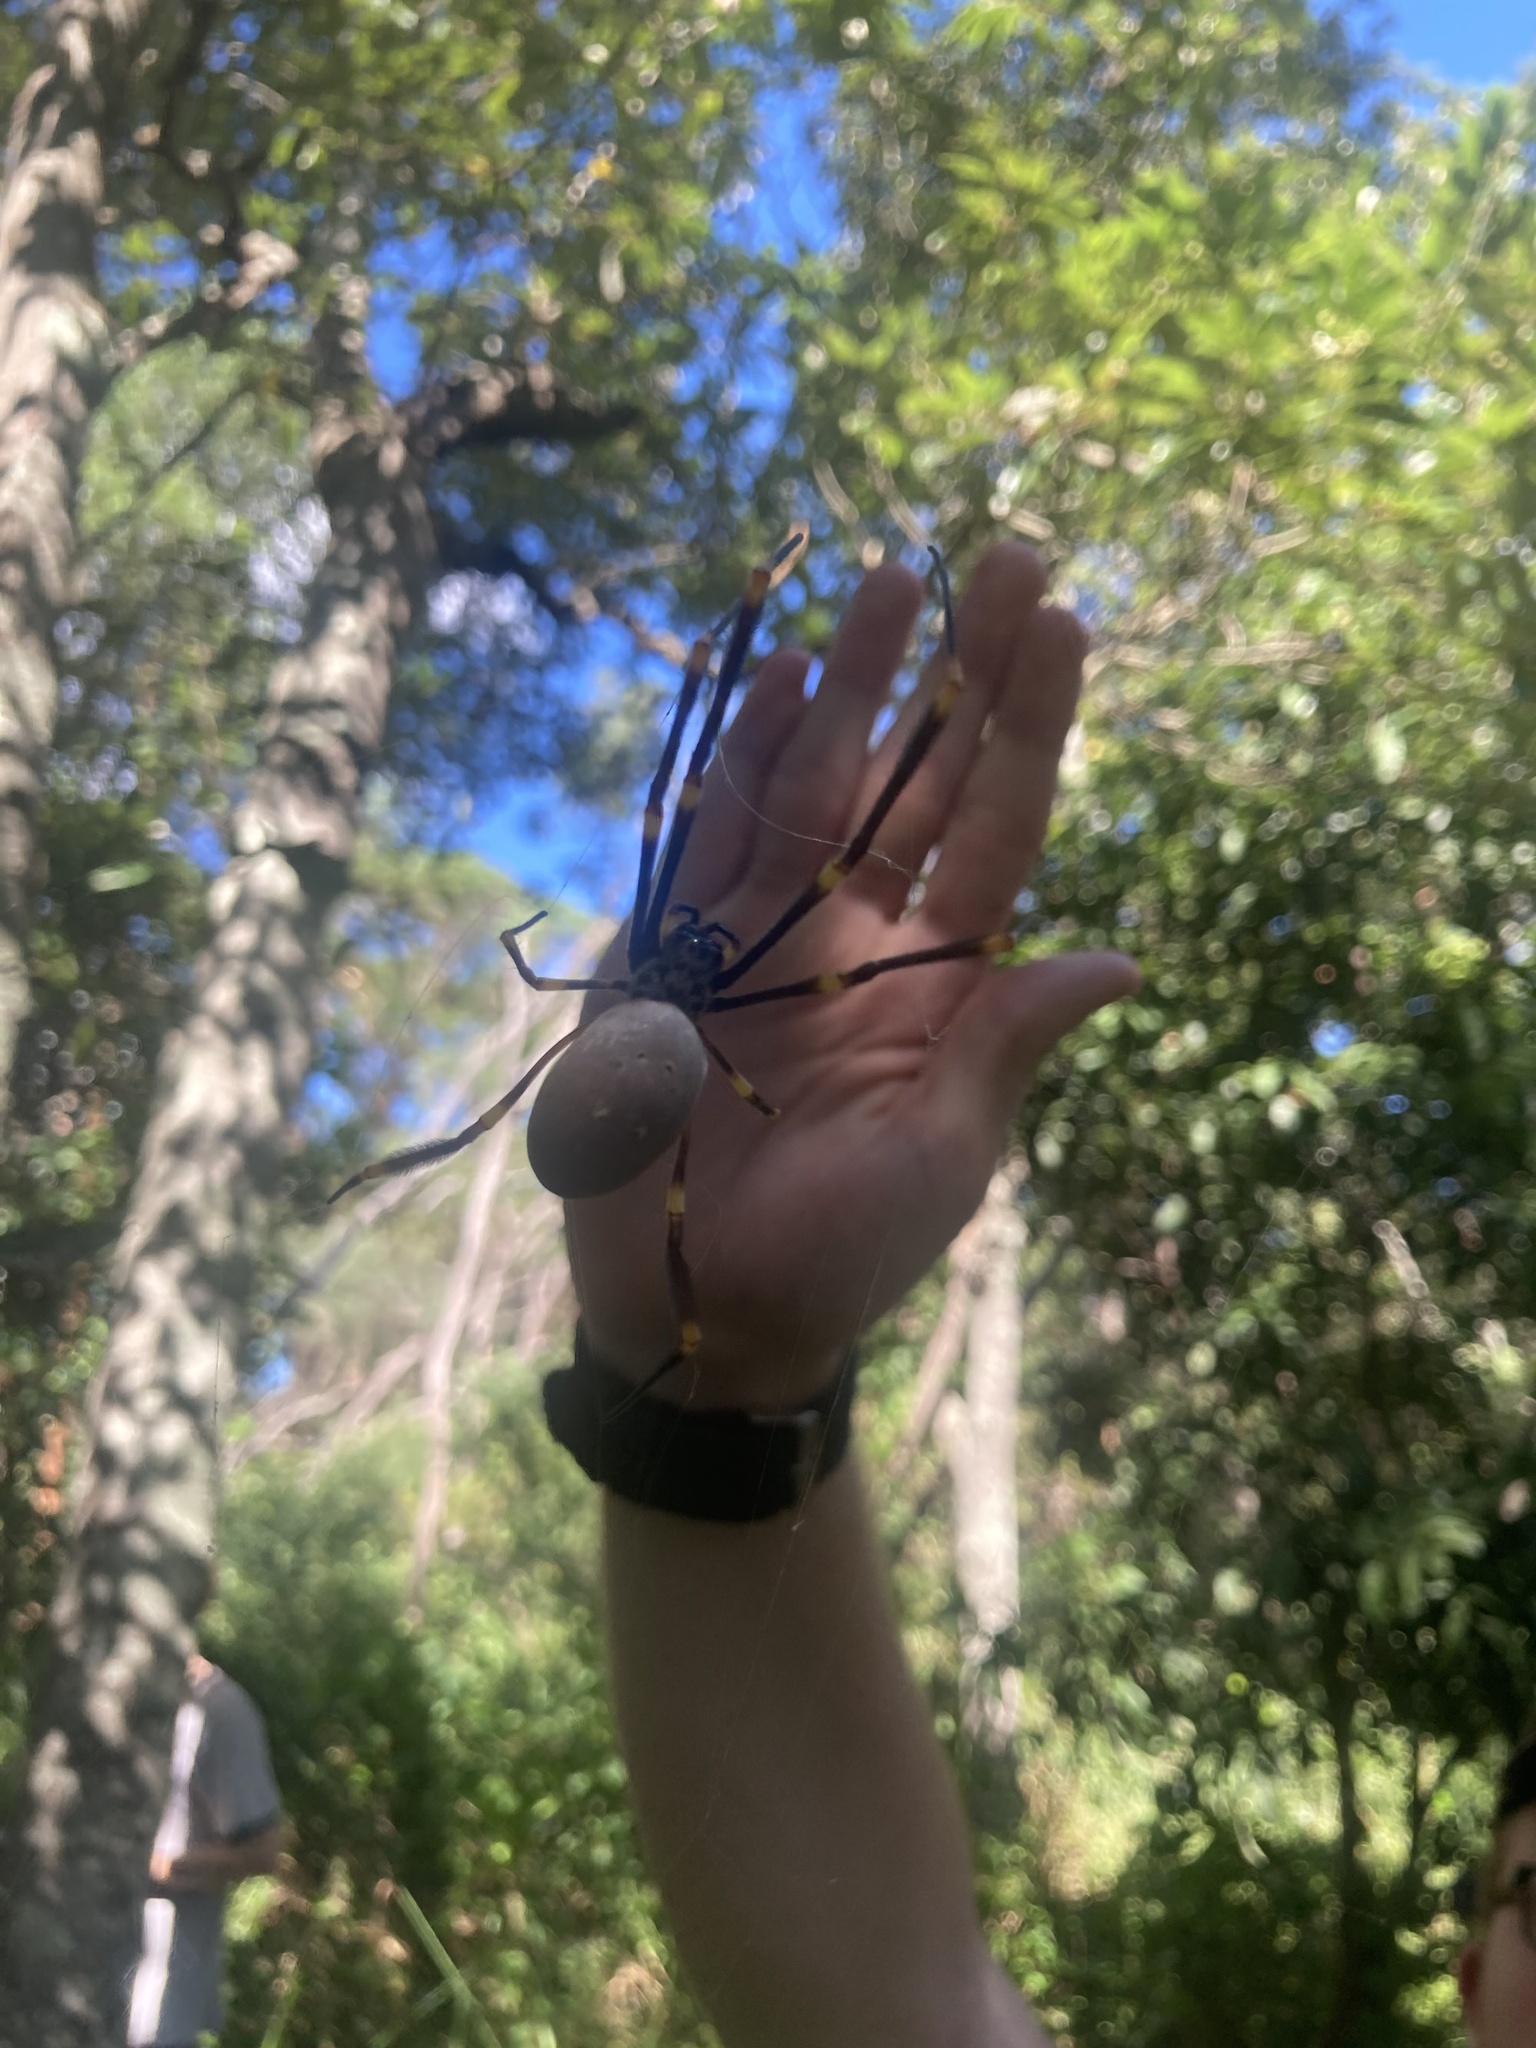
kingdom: Animalia
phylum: Arthropoda
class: Arachnida
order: Araneae
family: Araneidae
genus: Trichonephila
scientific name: Trichonephila plumipes
